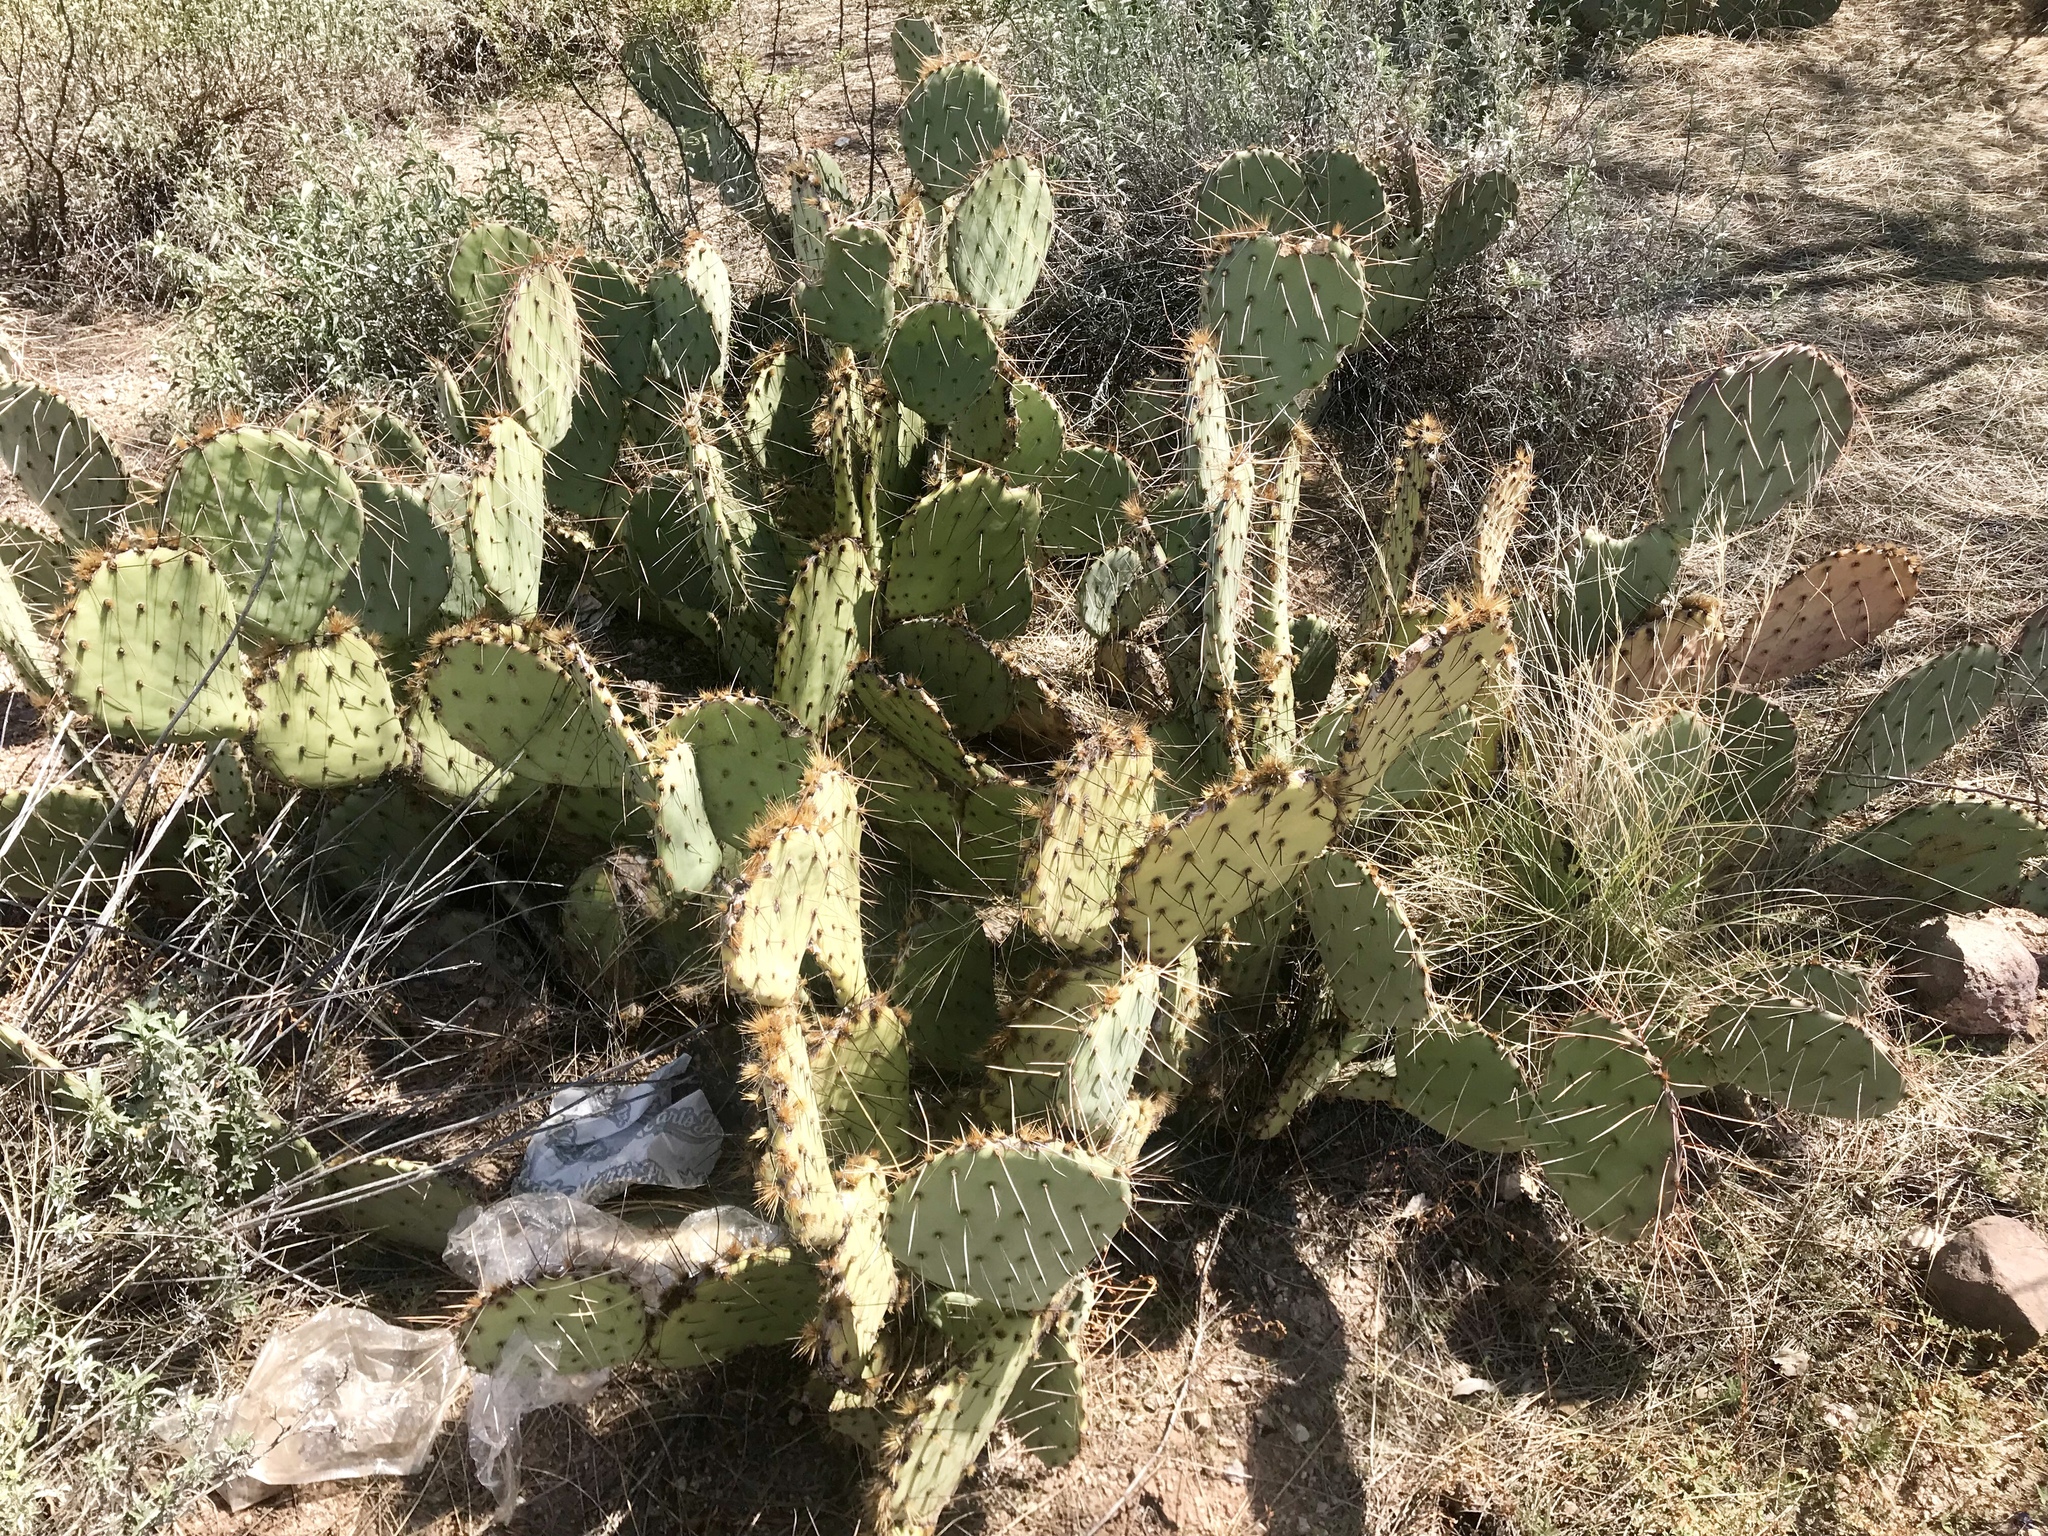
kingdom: Plantae
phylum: Tracheophyta
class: Magnoliopsida
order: Caryophyllales
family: Cactaceae
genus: Opuntia
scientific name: Opuntia engelmannii
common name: Cactus-apple
